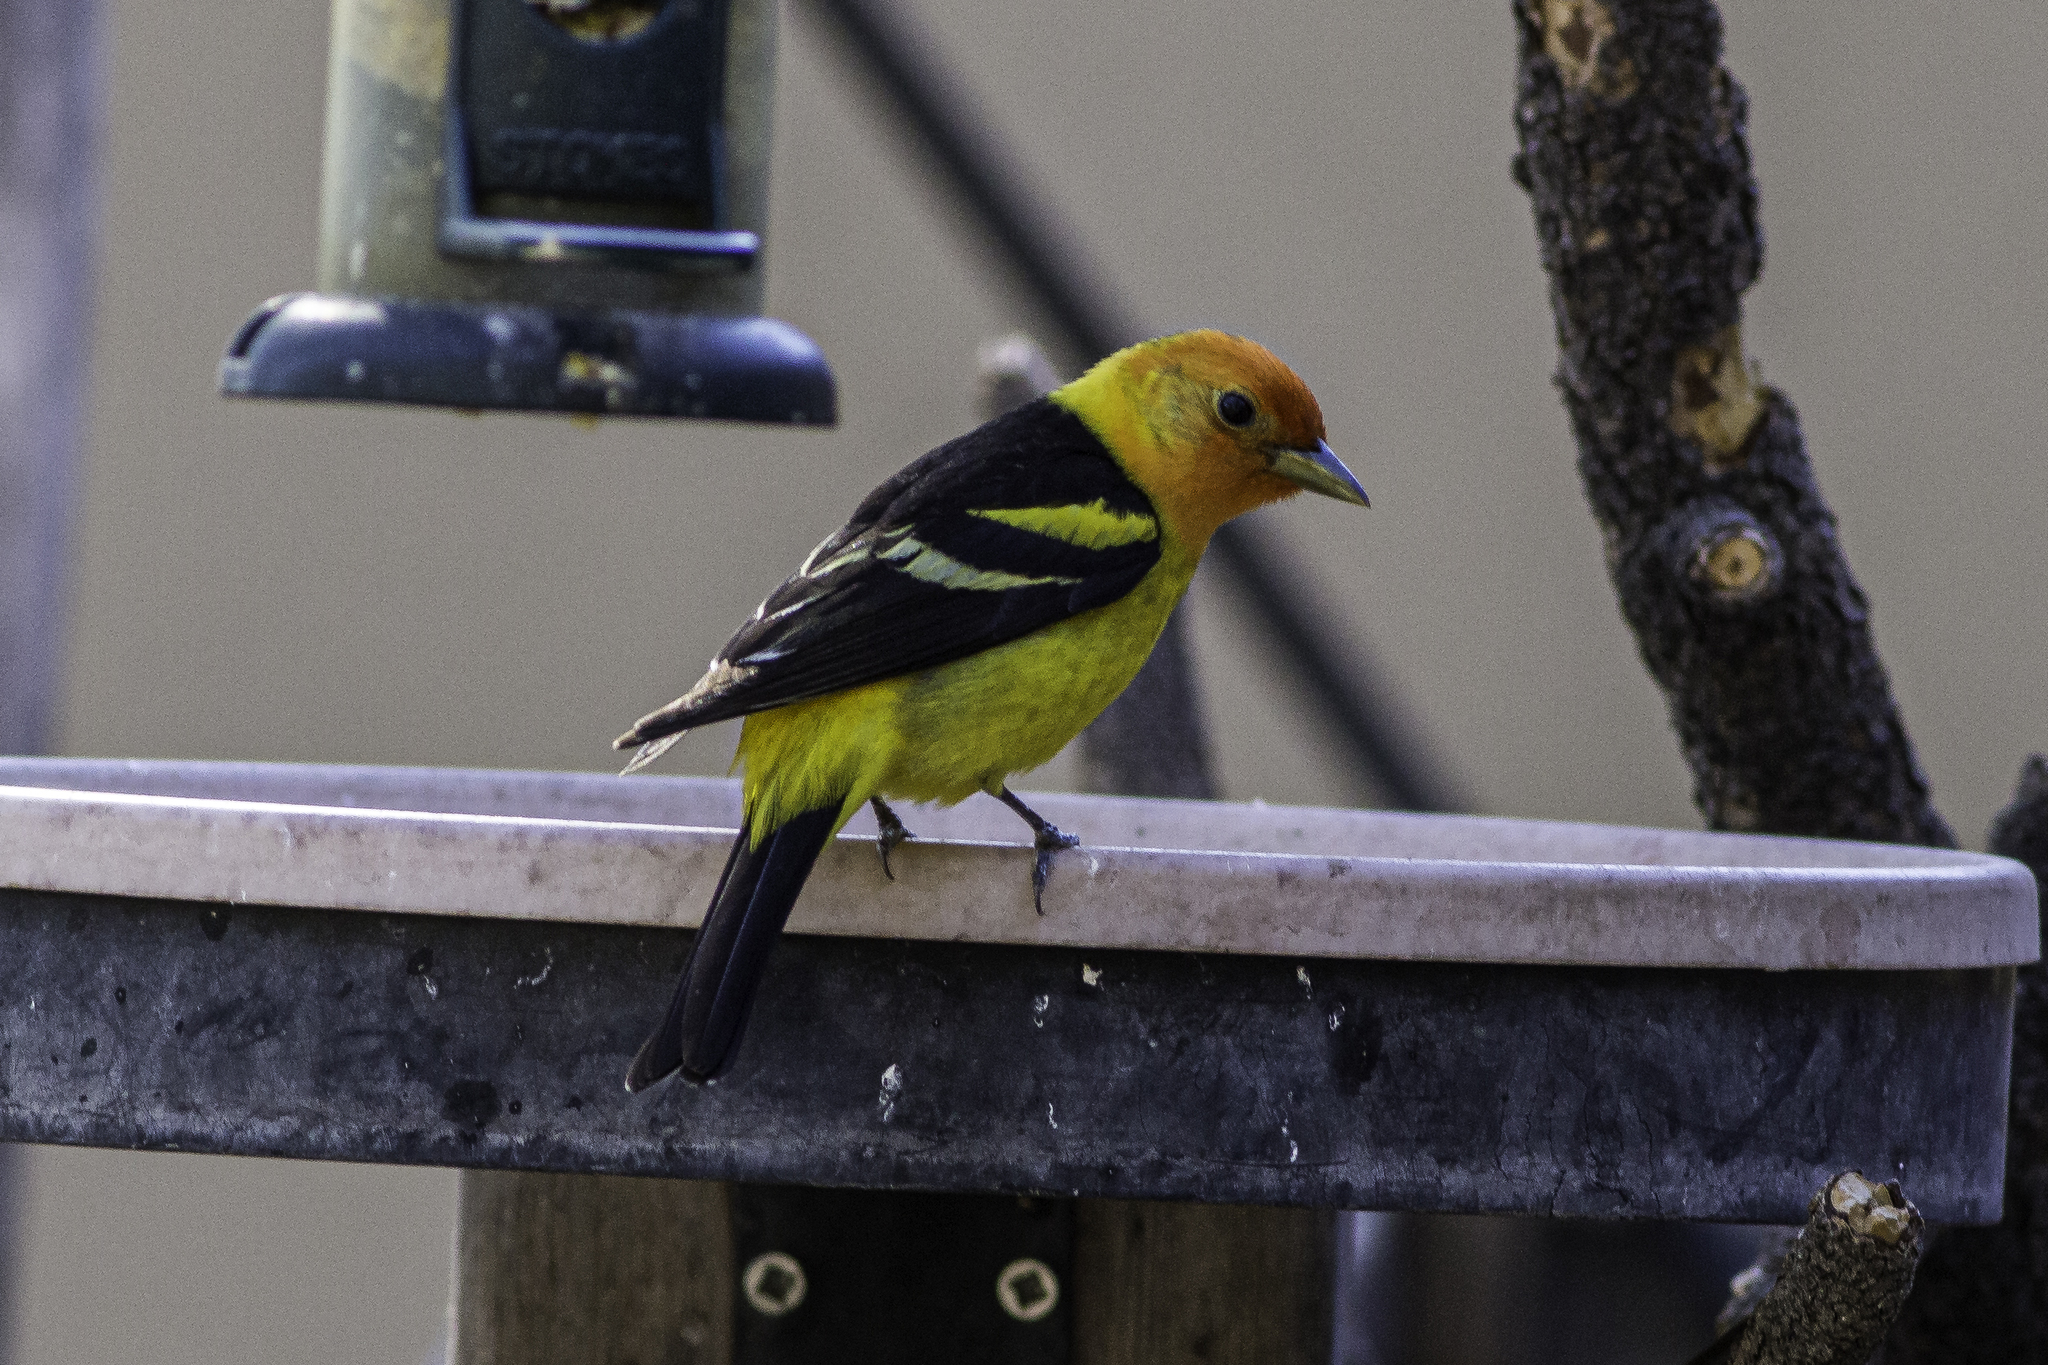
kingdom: Animalia
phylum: Chordata
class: Aves
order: Passeriformes
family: Cardinalidae
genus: Piranga
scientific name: Piranga ludoviciana
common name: Western tanager
